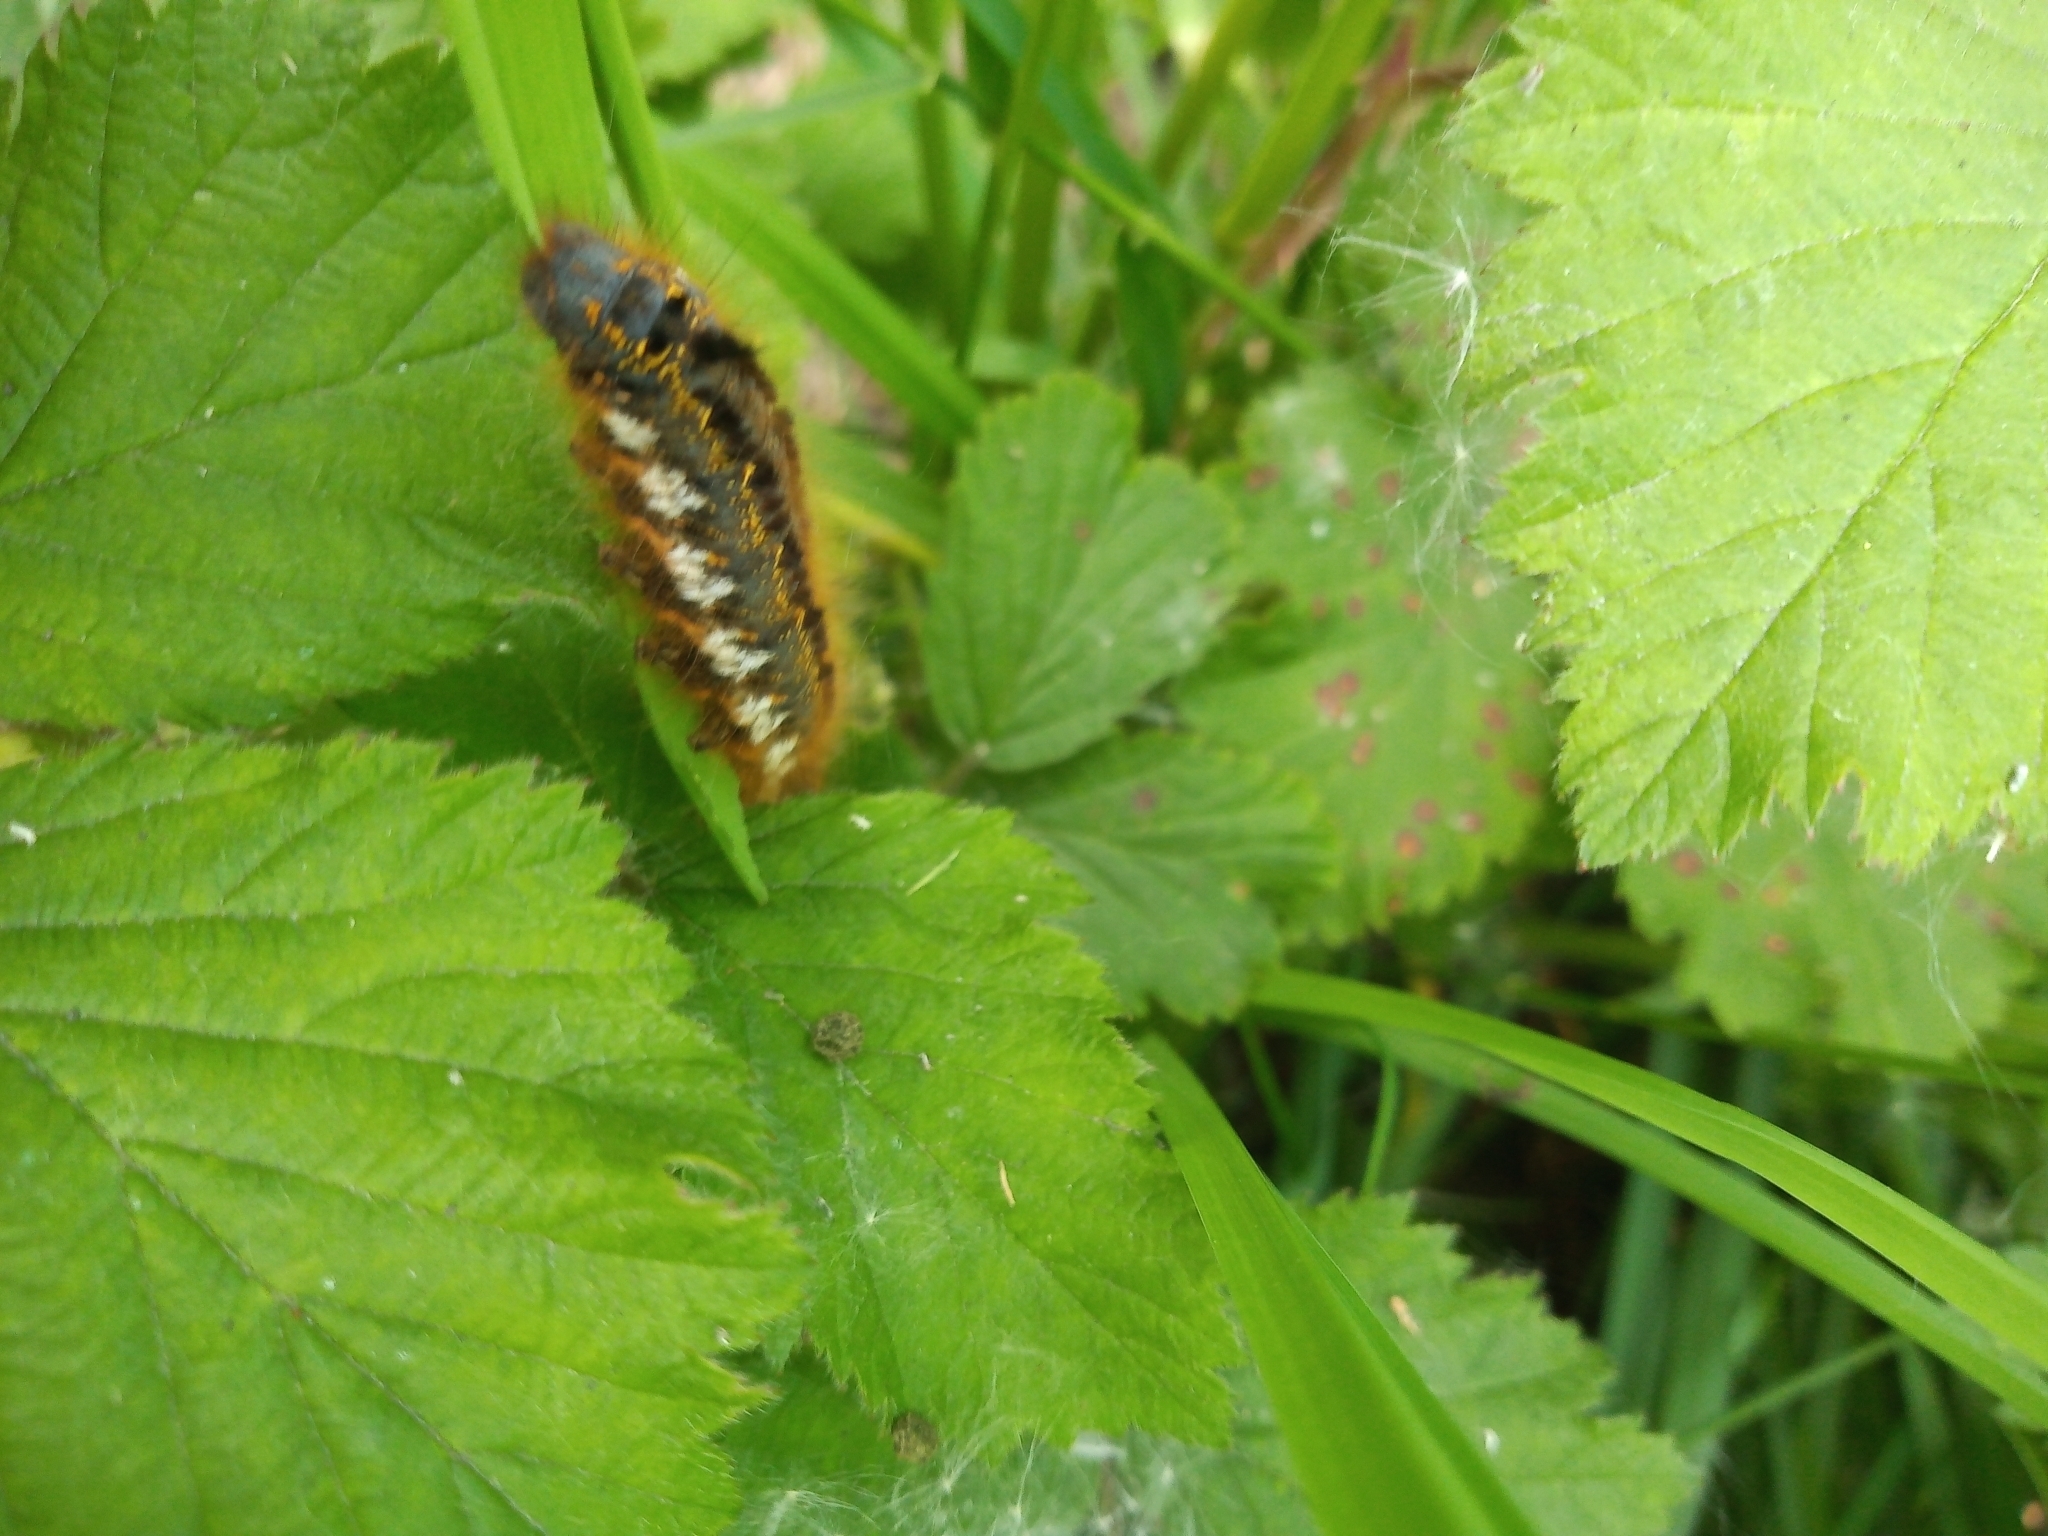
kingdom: Animalia
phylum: Arthropoda
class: Insecta
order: Lepidoptera
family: Lasiocampidae
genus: Euthrix
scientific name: Euthrix potatoria
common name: Drinker
